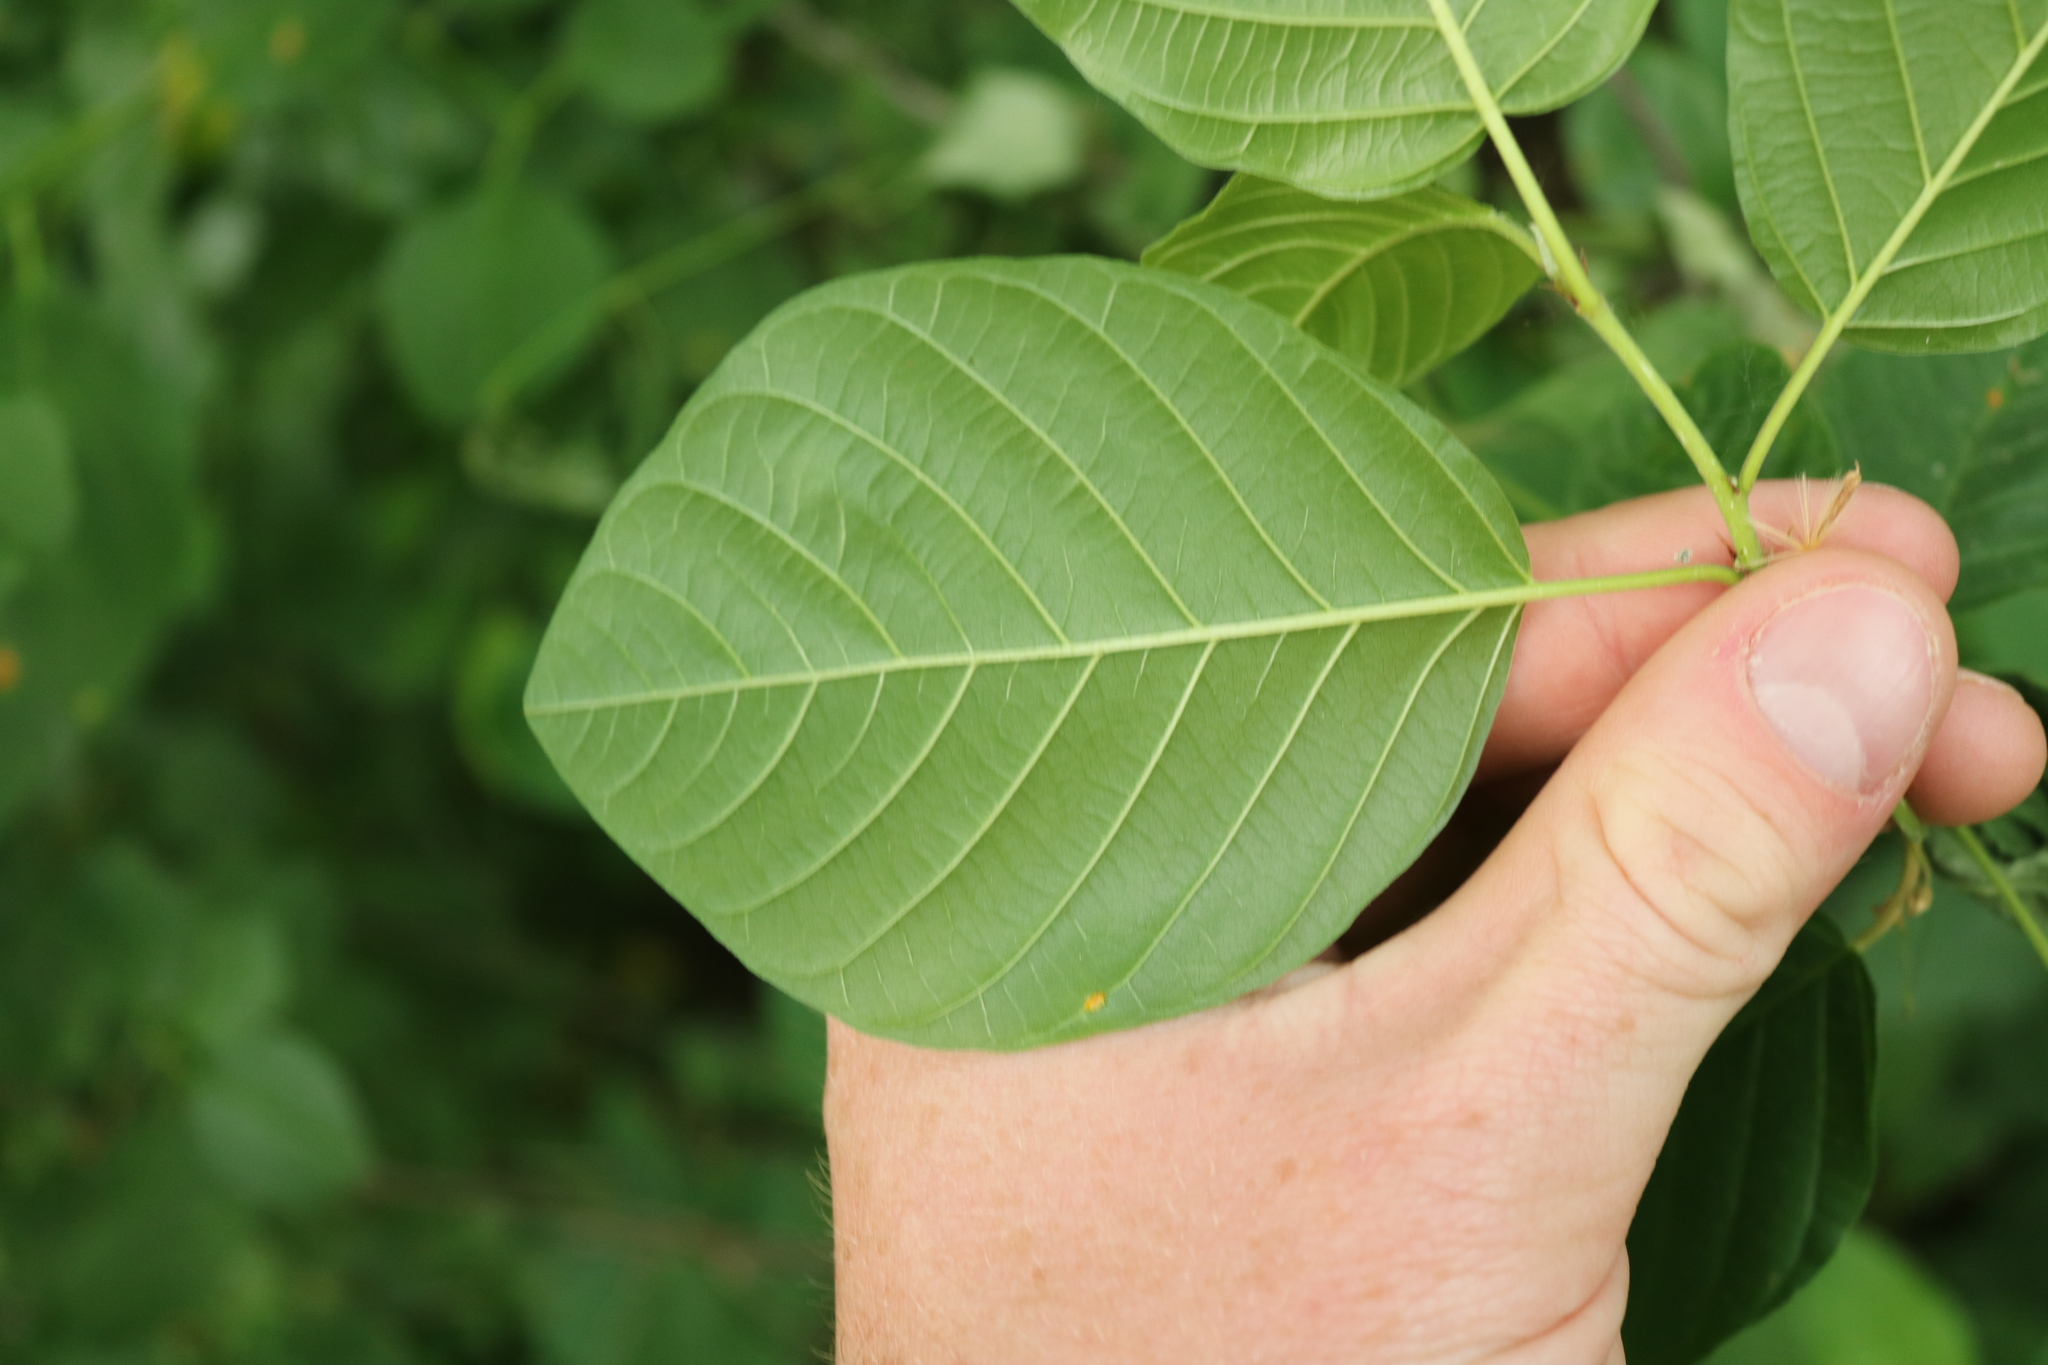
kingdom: Plantae
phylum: Tracheophyta
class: Magnoliopsida
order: Rosales
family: Rhamnaceae
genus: Frangula
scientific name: Frangula alnus
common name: Alder buckthorn
